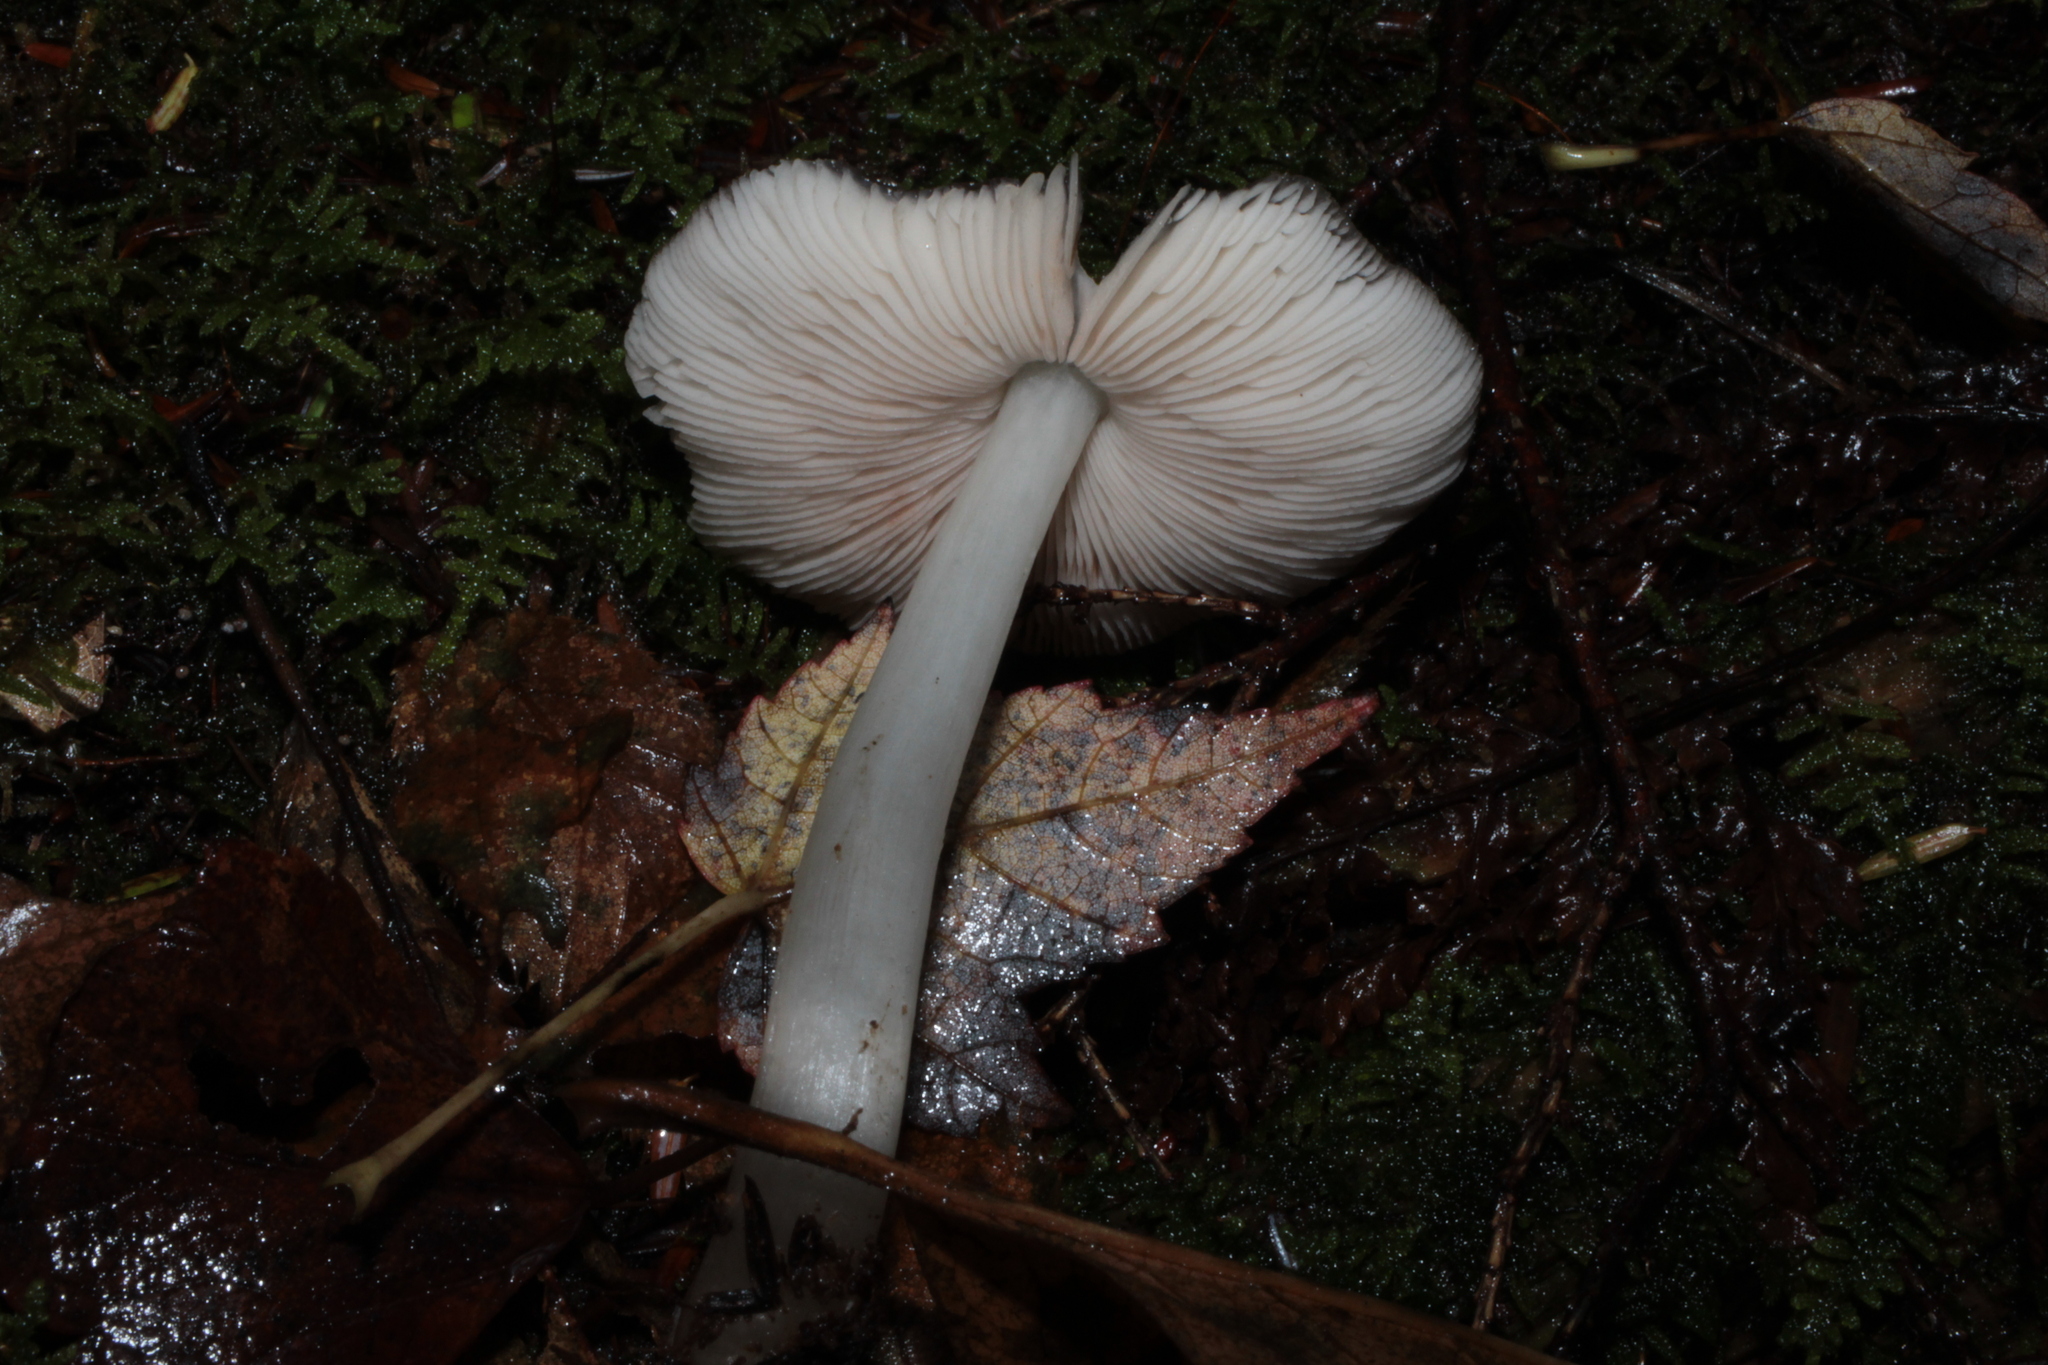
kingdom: Fungi
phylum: Basidiomycota
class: Agaricomycetes
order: Agaricales
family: Pluteaceae
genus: Pluteus
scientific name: Pluteus cervinus
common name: Deer shield
